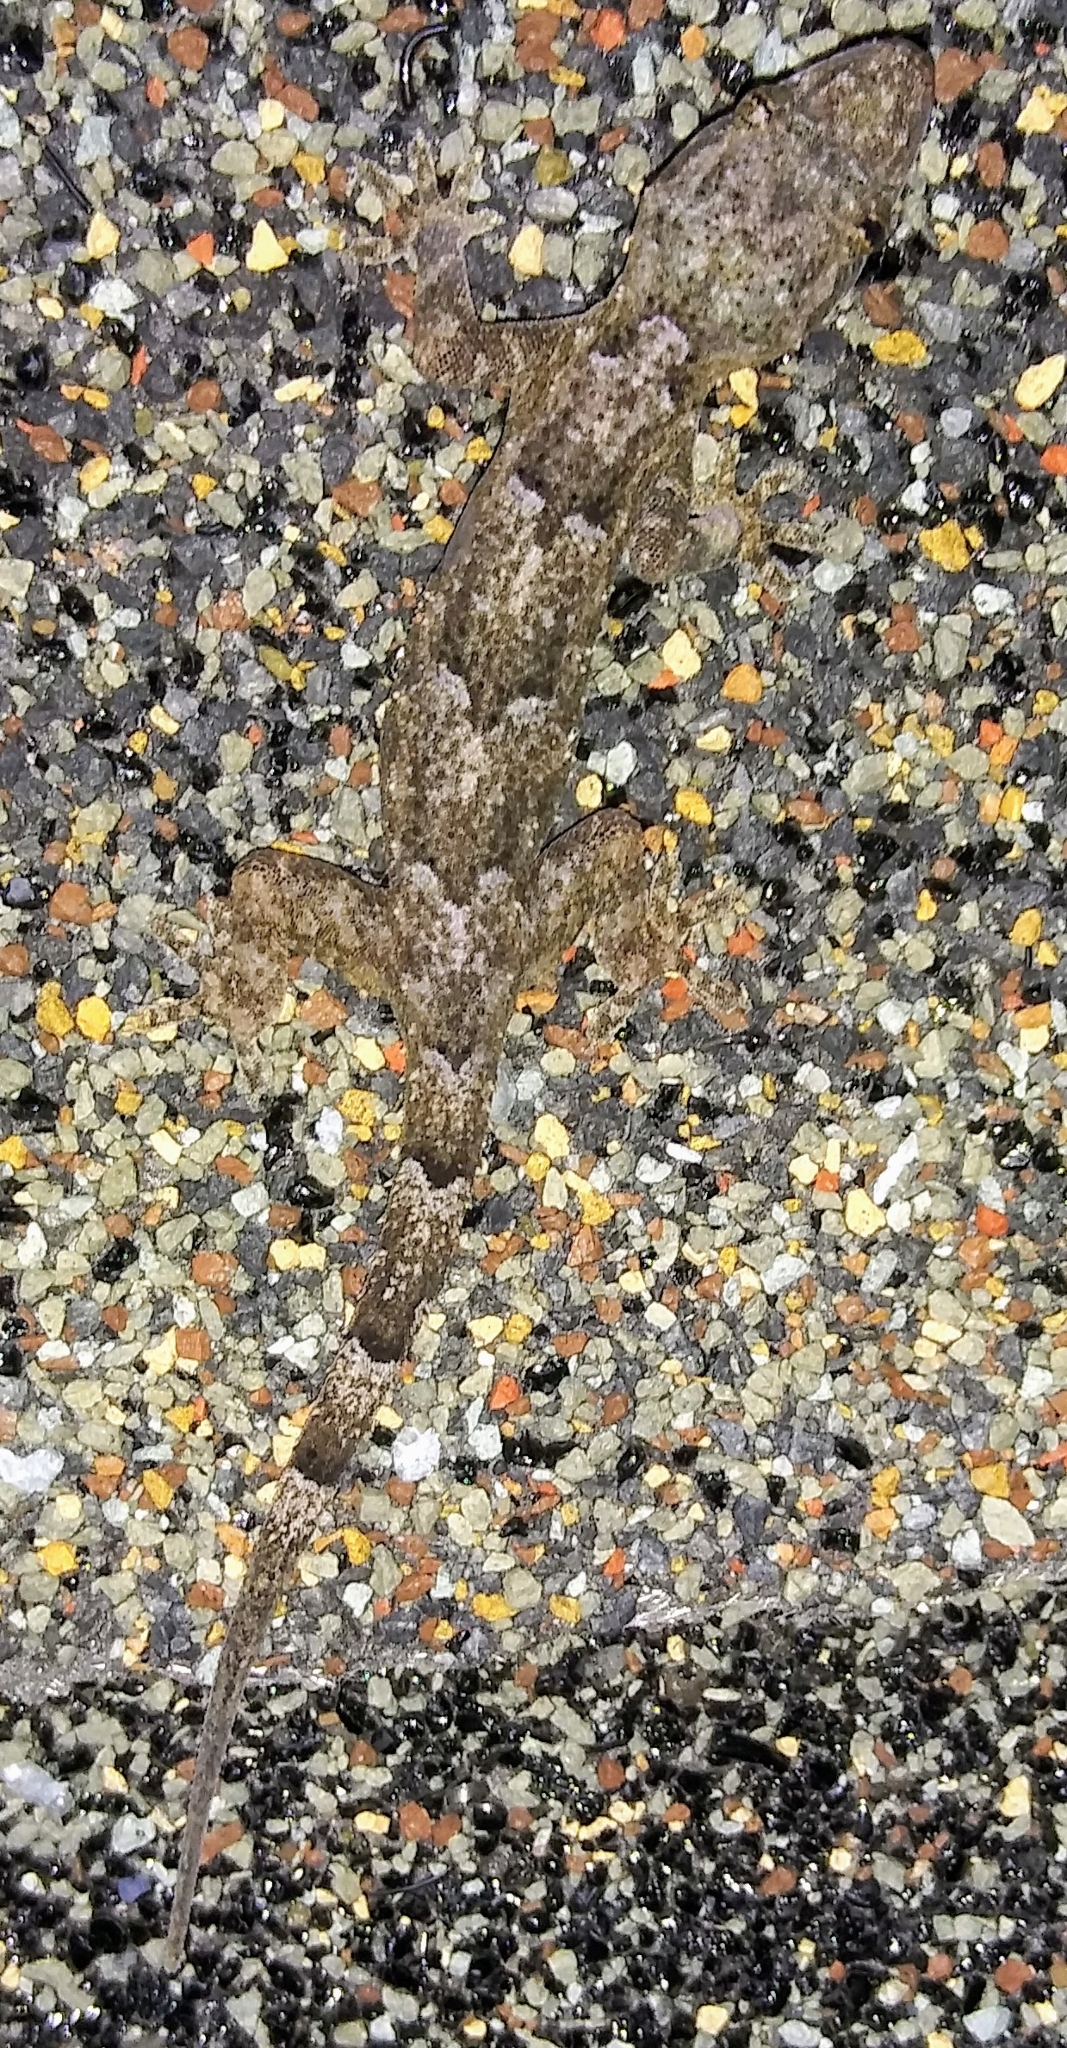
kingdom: Animalia
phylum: Chordata
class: Squamata
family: Gekkonidae
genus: Hemidactylus
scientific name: Hemidactylus mabouia
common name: House gecko
